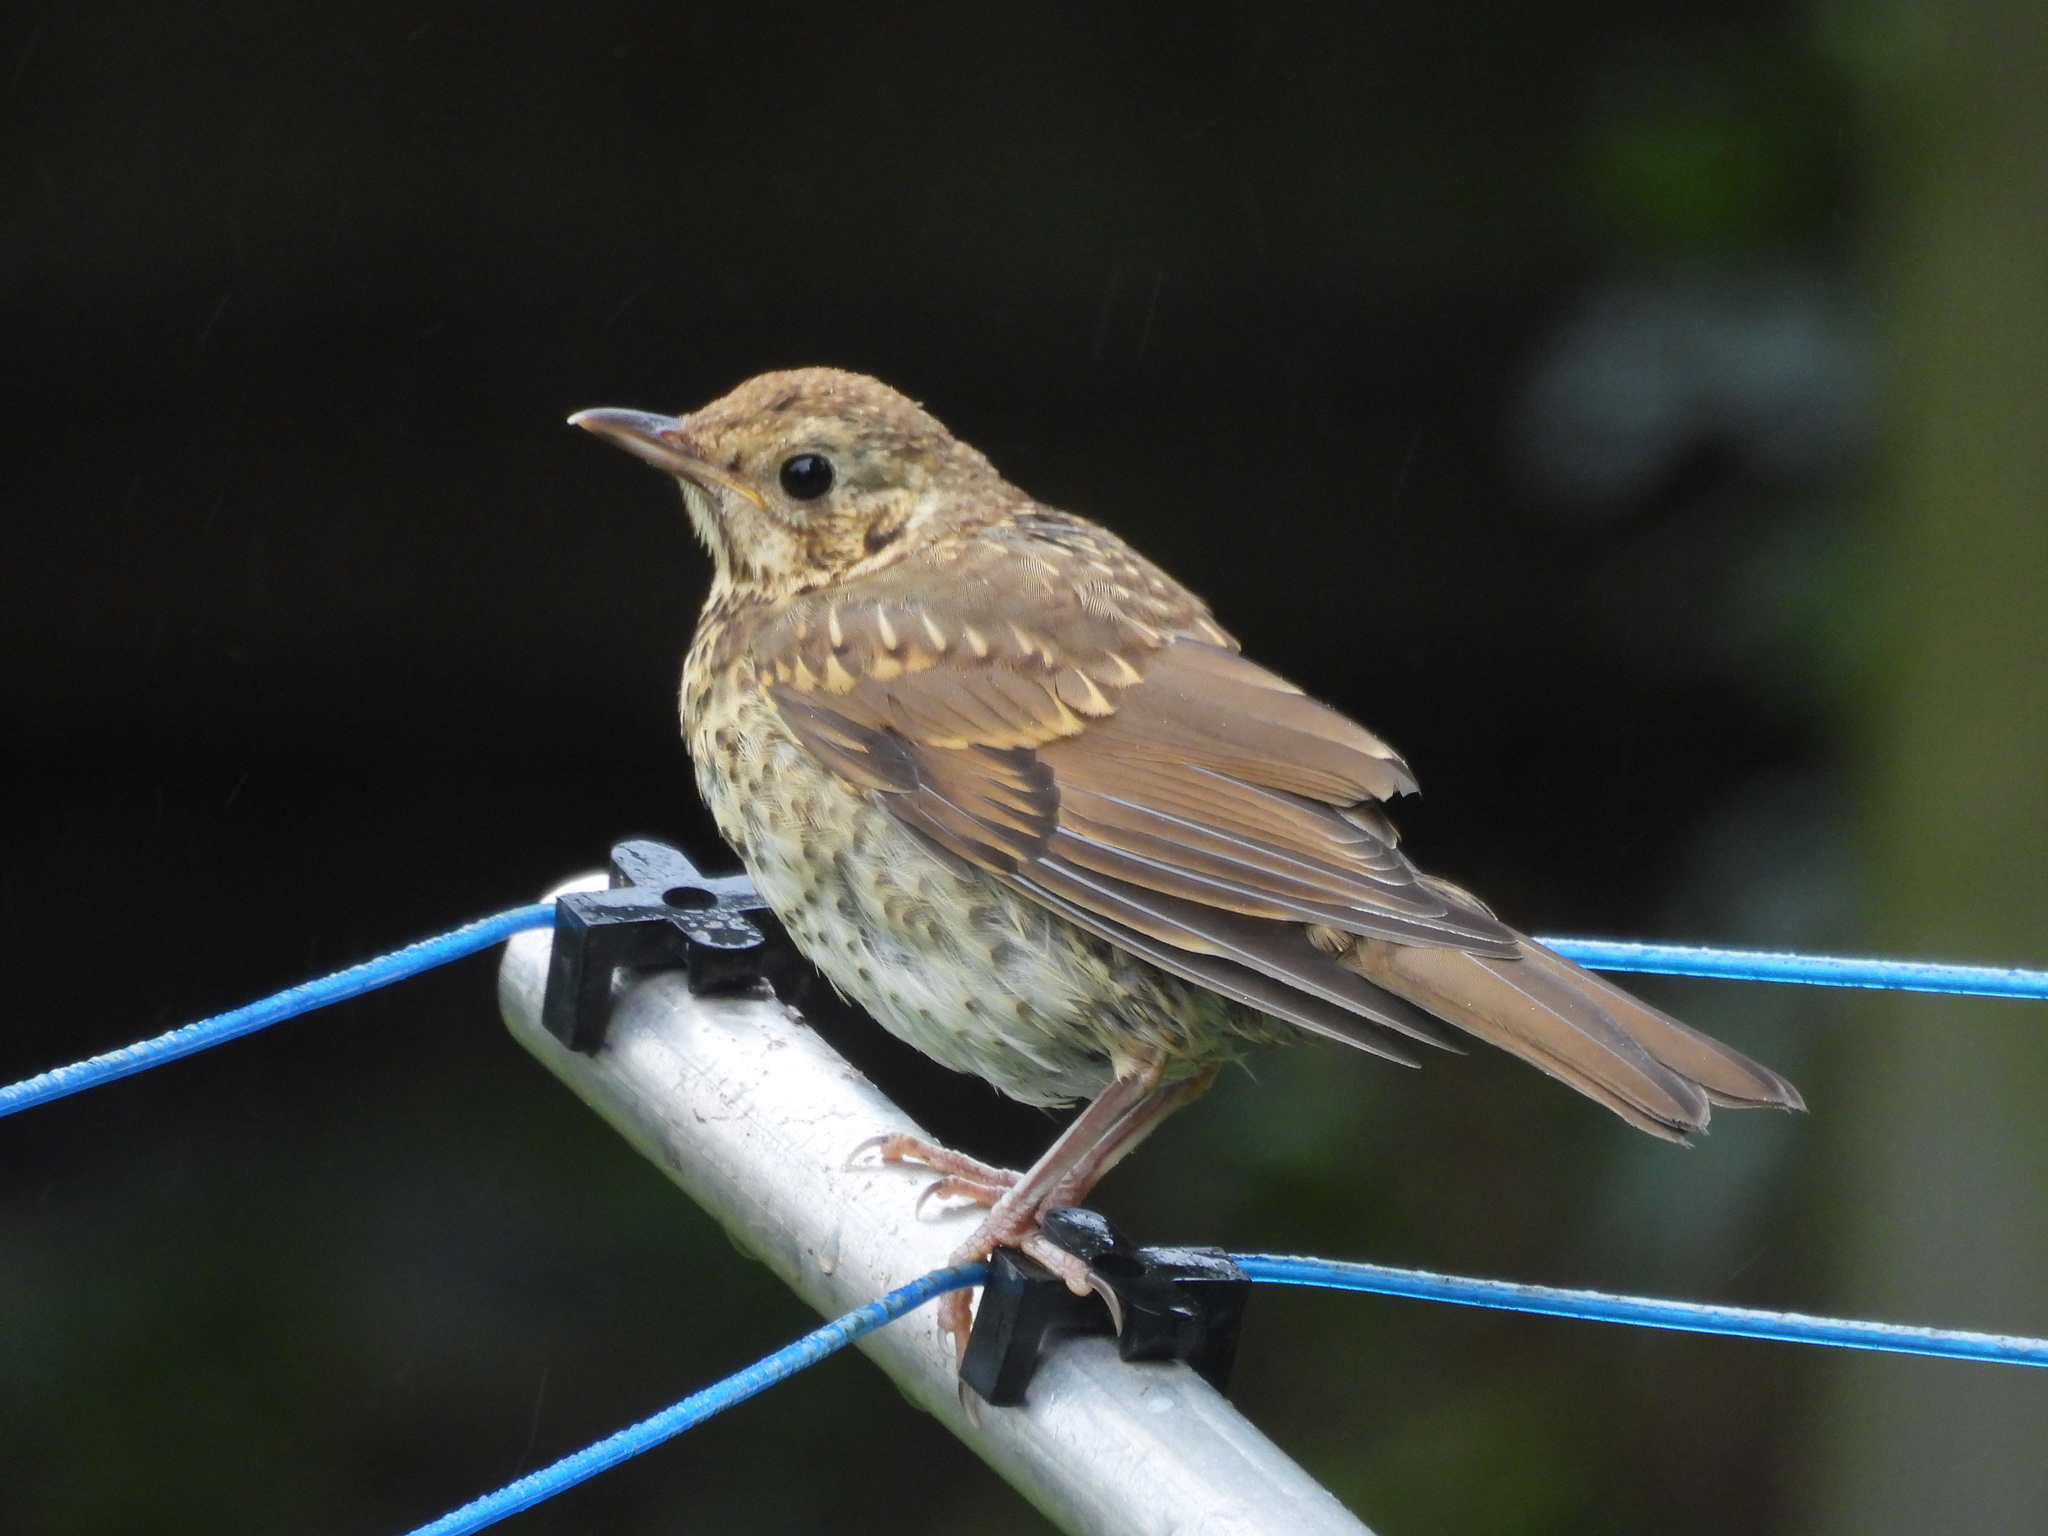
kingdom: Animalia
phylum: Chordata
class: Aves
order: Passeriformes
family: Turdidae
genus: Turdus
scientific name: Turdus philomelos
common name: Song thrush
